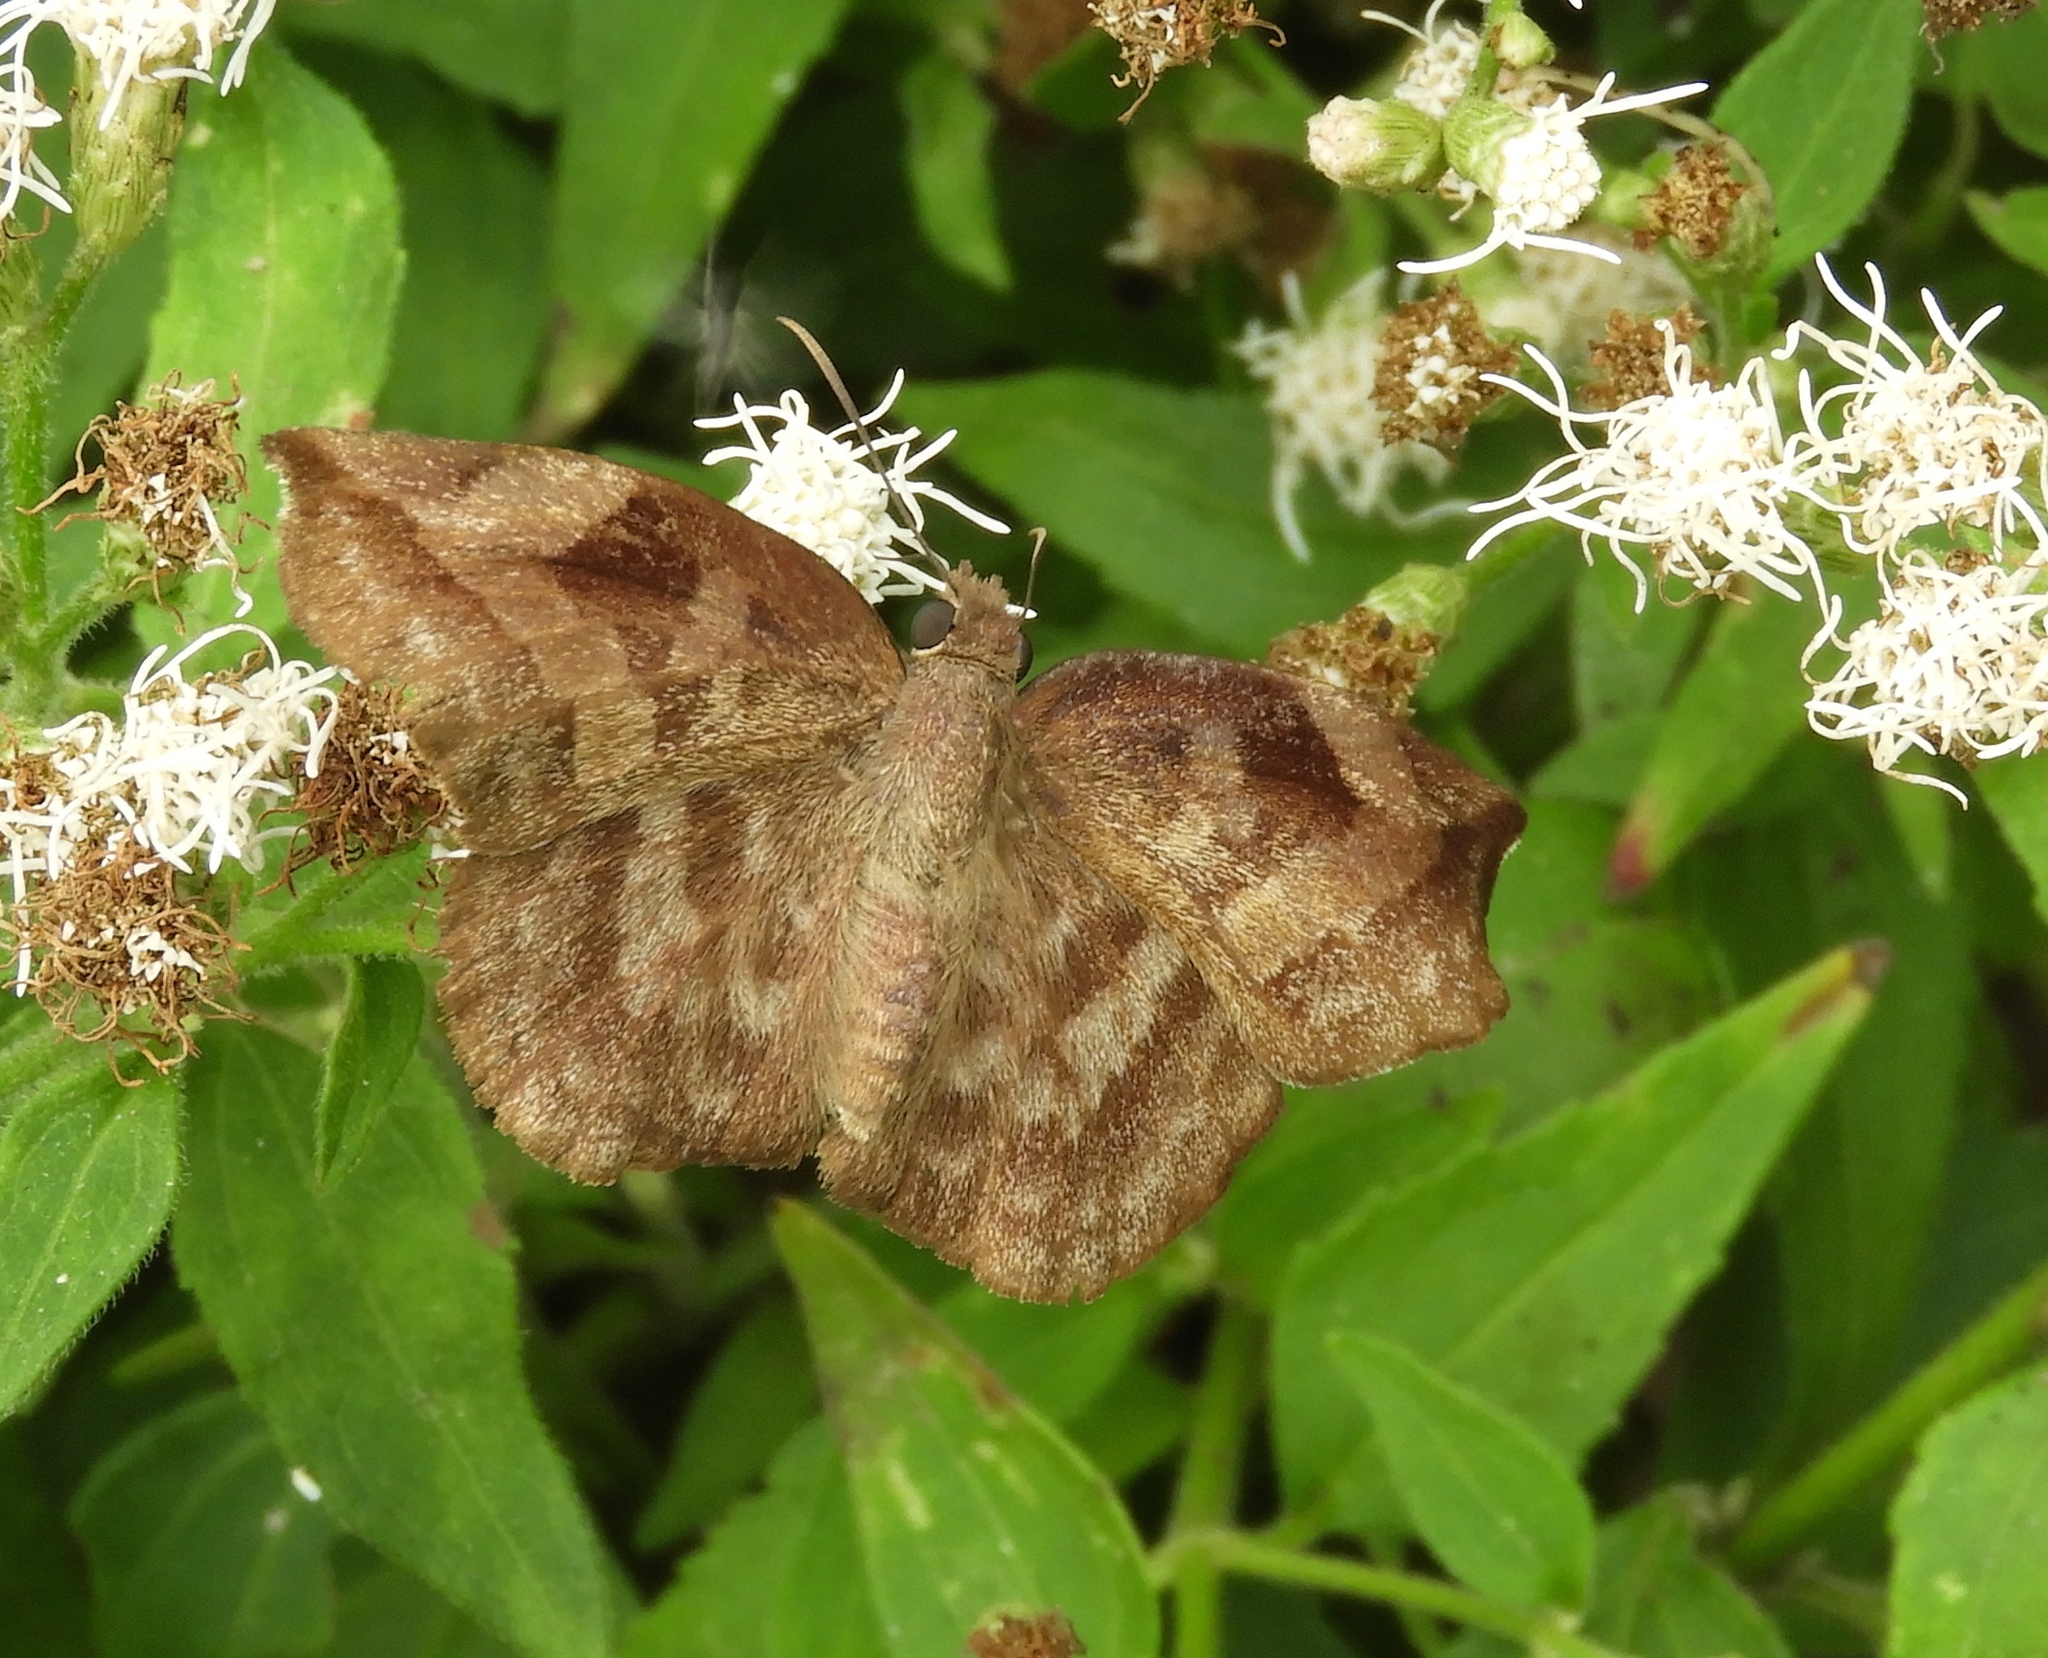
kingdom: Animalia
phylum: Arthropoda
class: Insecta
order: Lepidoptera
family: Hesperiidae
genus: Achlyodes
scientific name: Achlyodes
